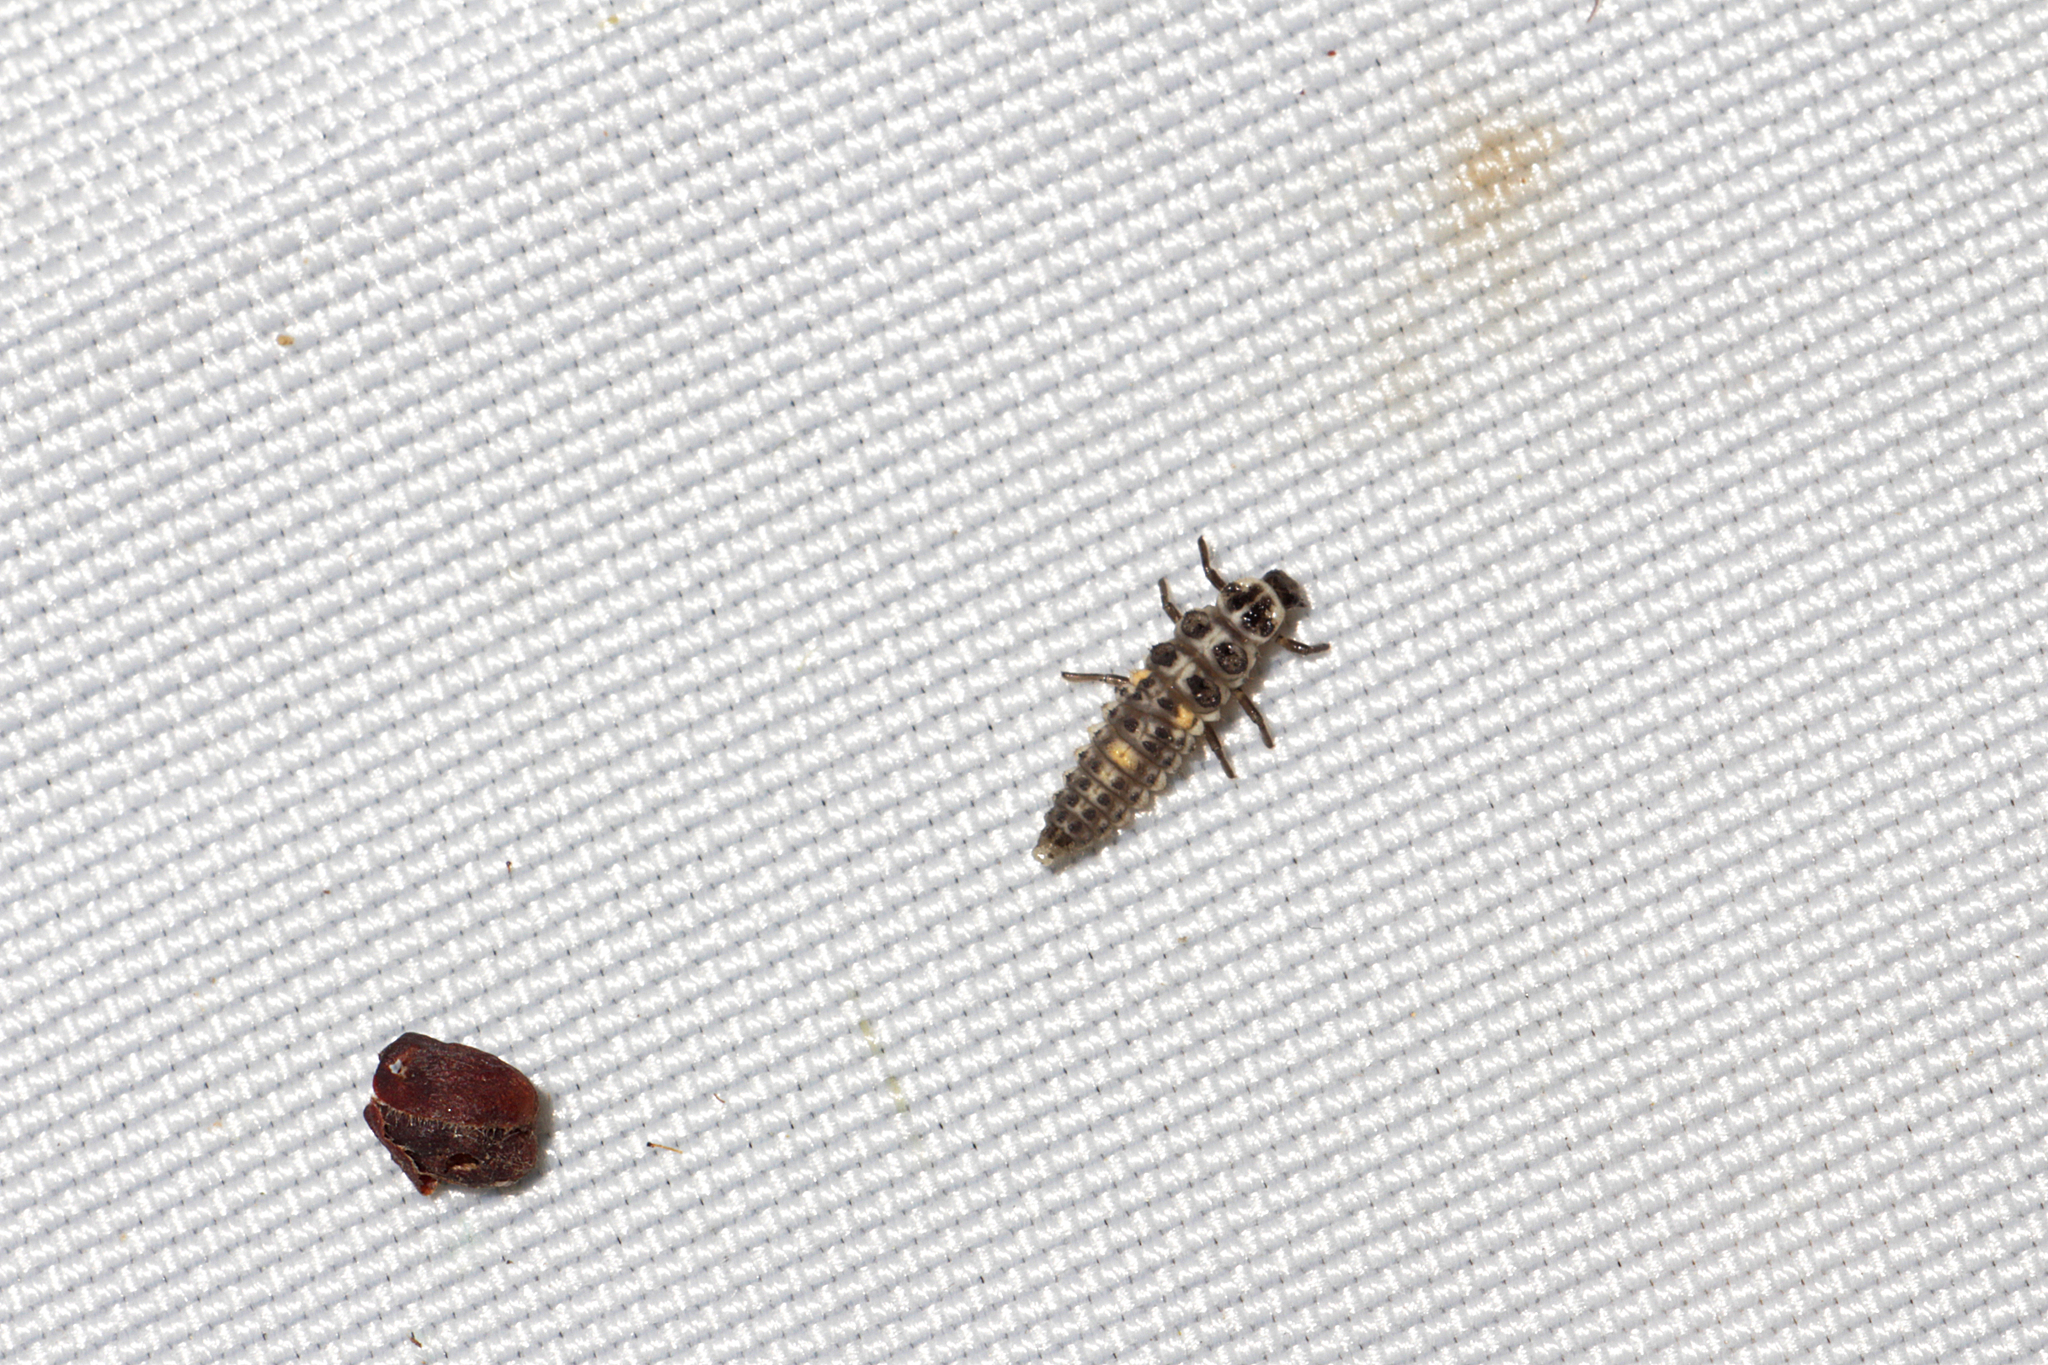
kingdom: Animalia
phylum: Arthropoda
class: Insecta
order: Coleoptera
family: Coccinellidae
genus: Adalia
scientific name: Adalia decempunctata
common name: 10-spot ladybird
